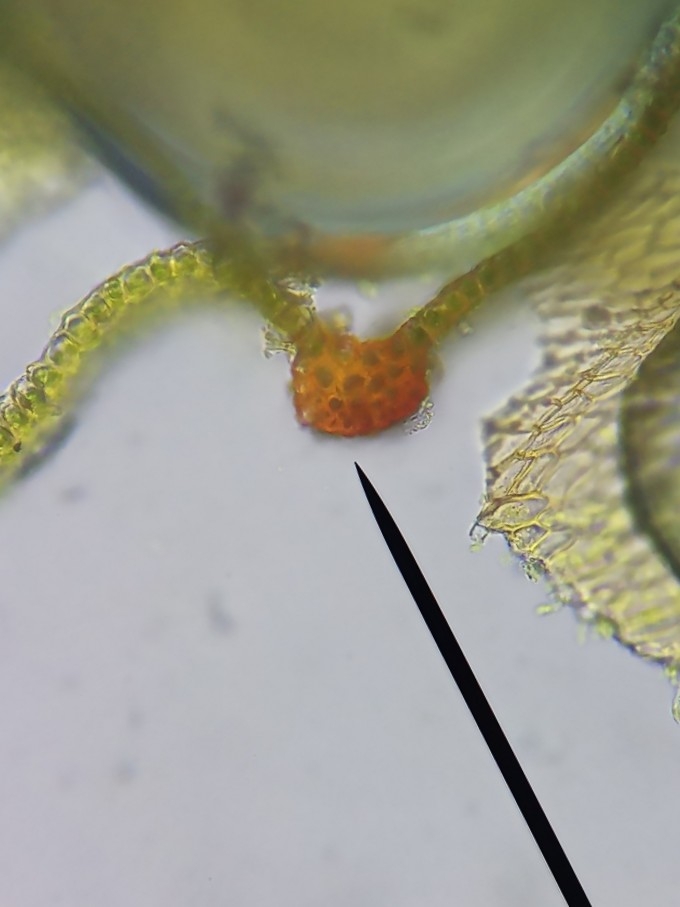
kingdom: Plantae
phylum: Bryophyta
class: Bryopsida
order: Orthotrichales
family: Orthotrichaceae
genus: Orthotrichum
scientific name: Orthotrichum anomalum
